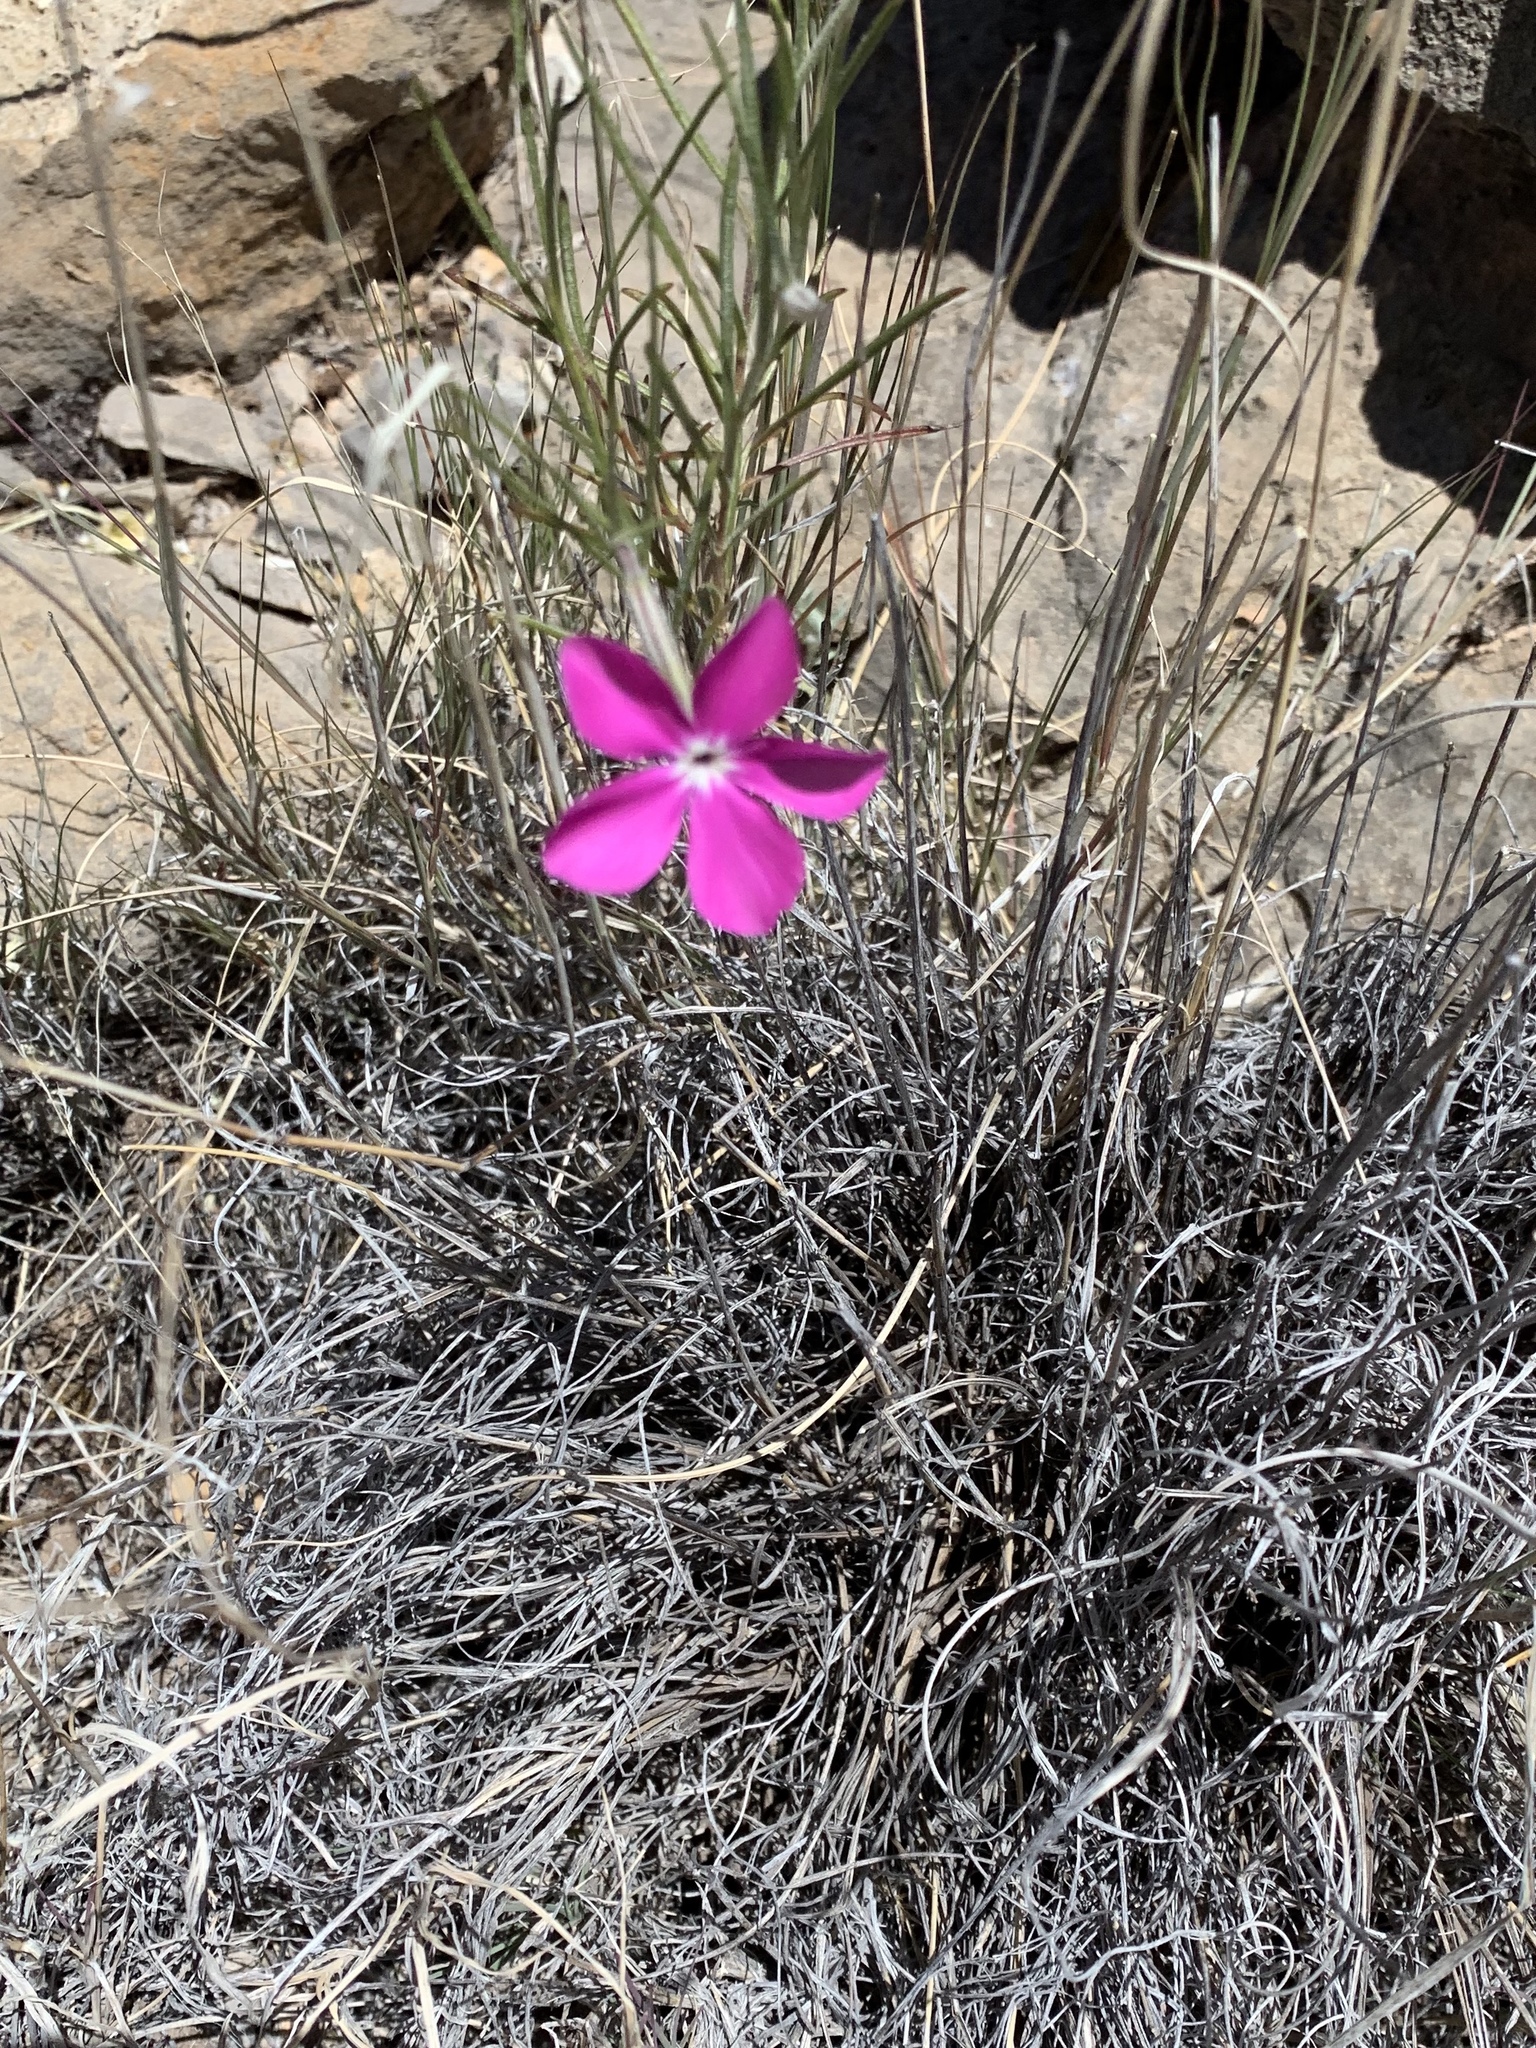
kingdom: Plantae
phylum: Tracheophyta
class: Magnoliopsida
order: Ericales
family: Polemoniaceae
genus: Phlox
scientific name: Phlox nana
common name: Santa fe phlox
